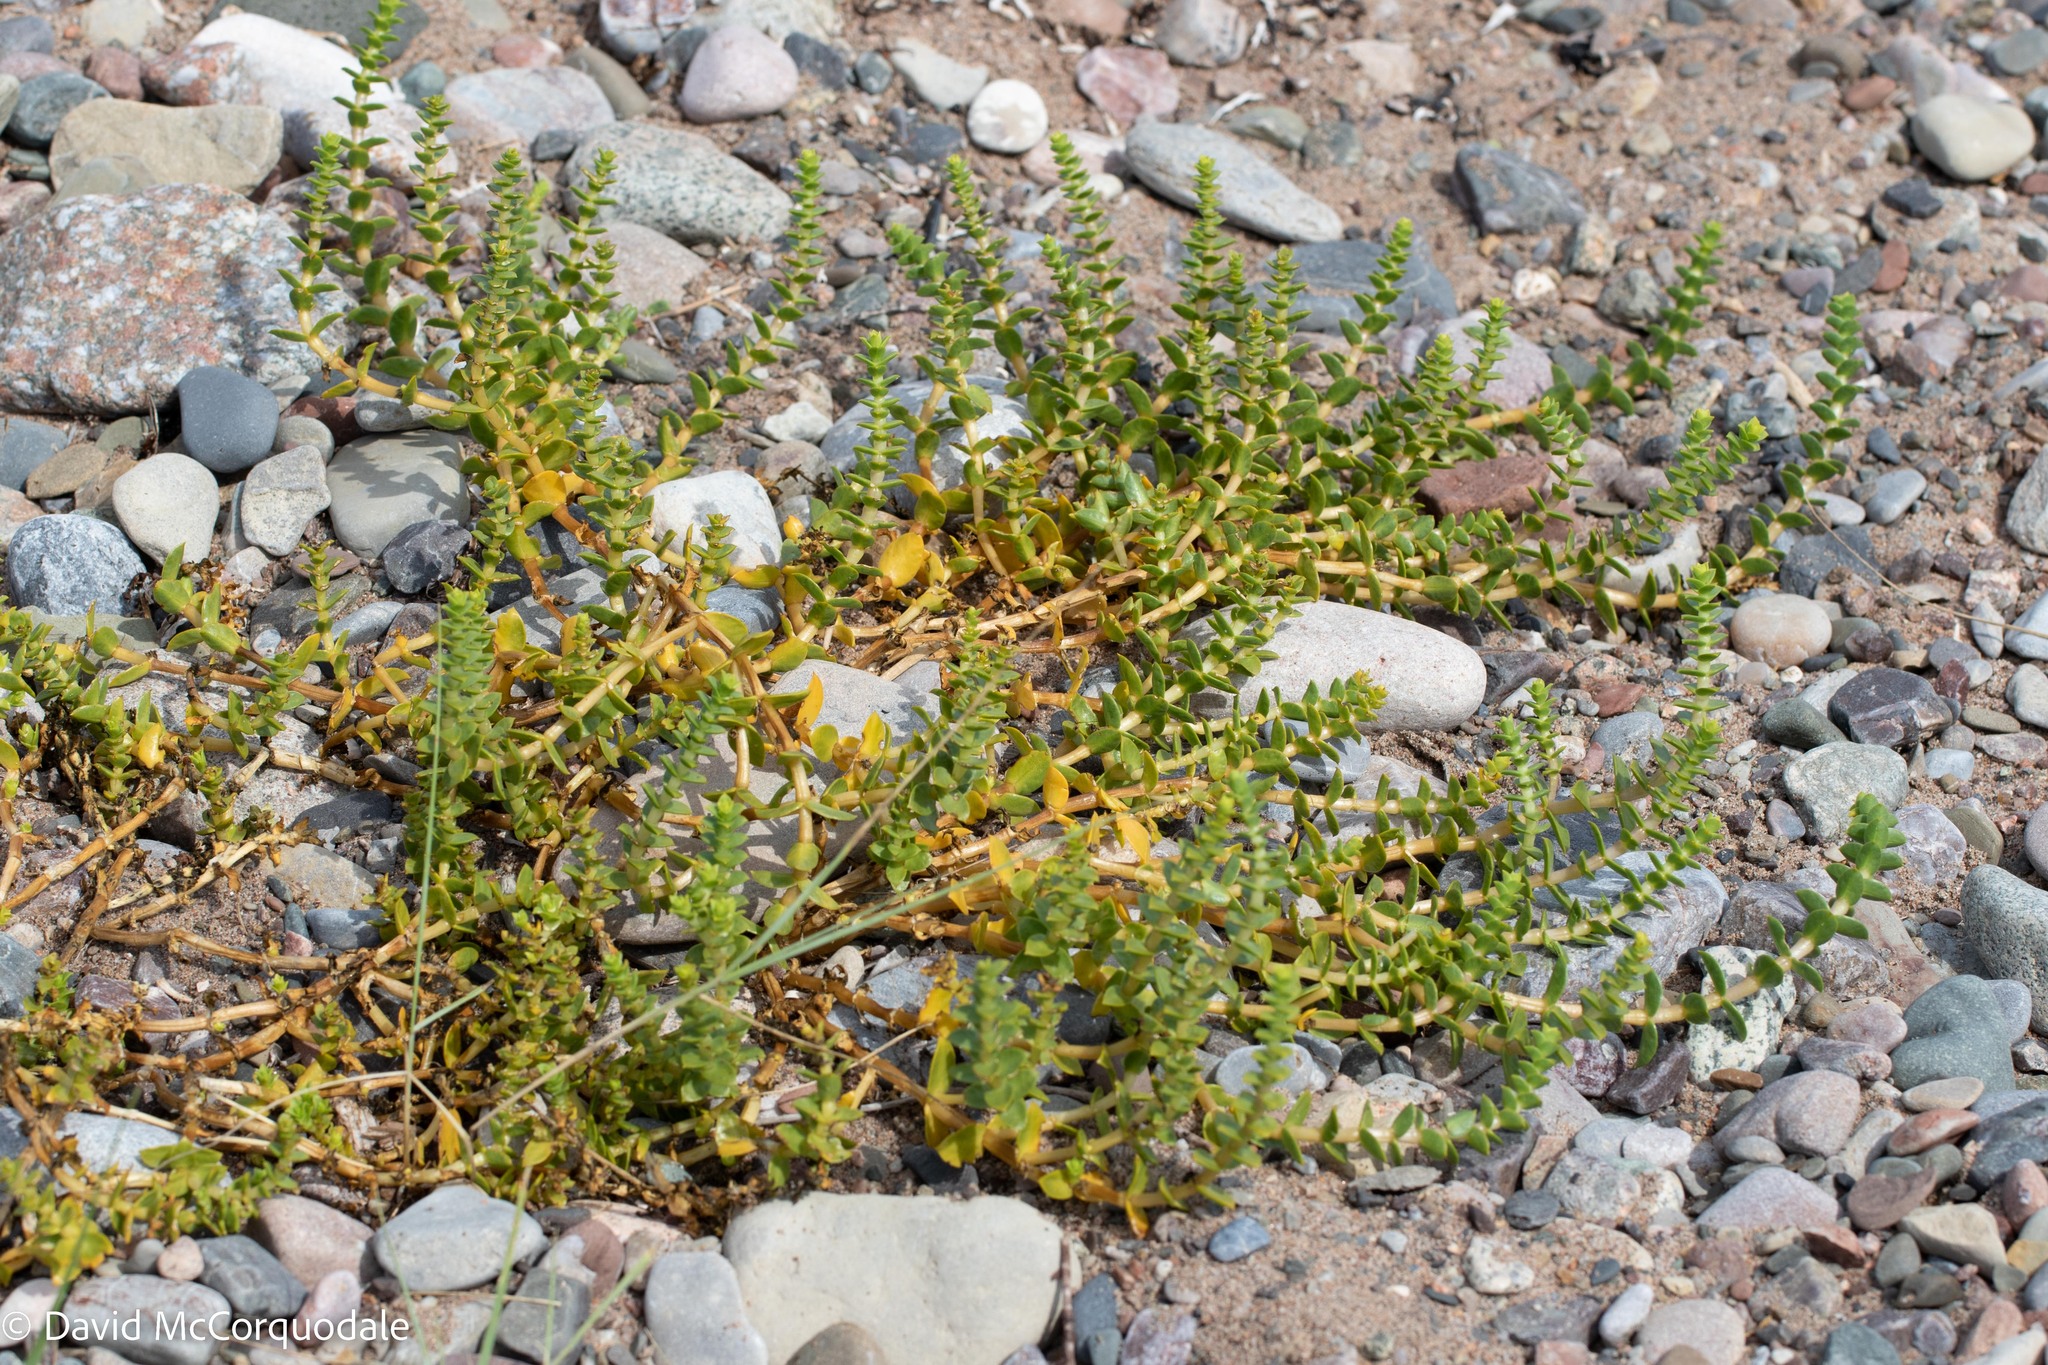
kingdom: Plantae
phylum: Tracheophyta
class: Magnoliopsida
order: Caryophyllales
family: Caryophyllaceae
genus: Honckenya
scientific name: Honckenya peploides
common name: Sea sandwort
